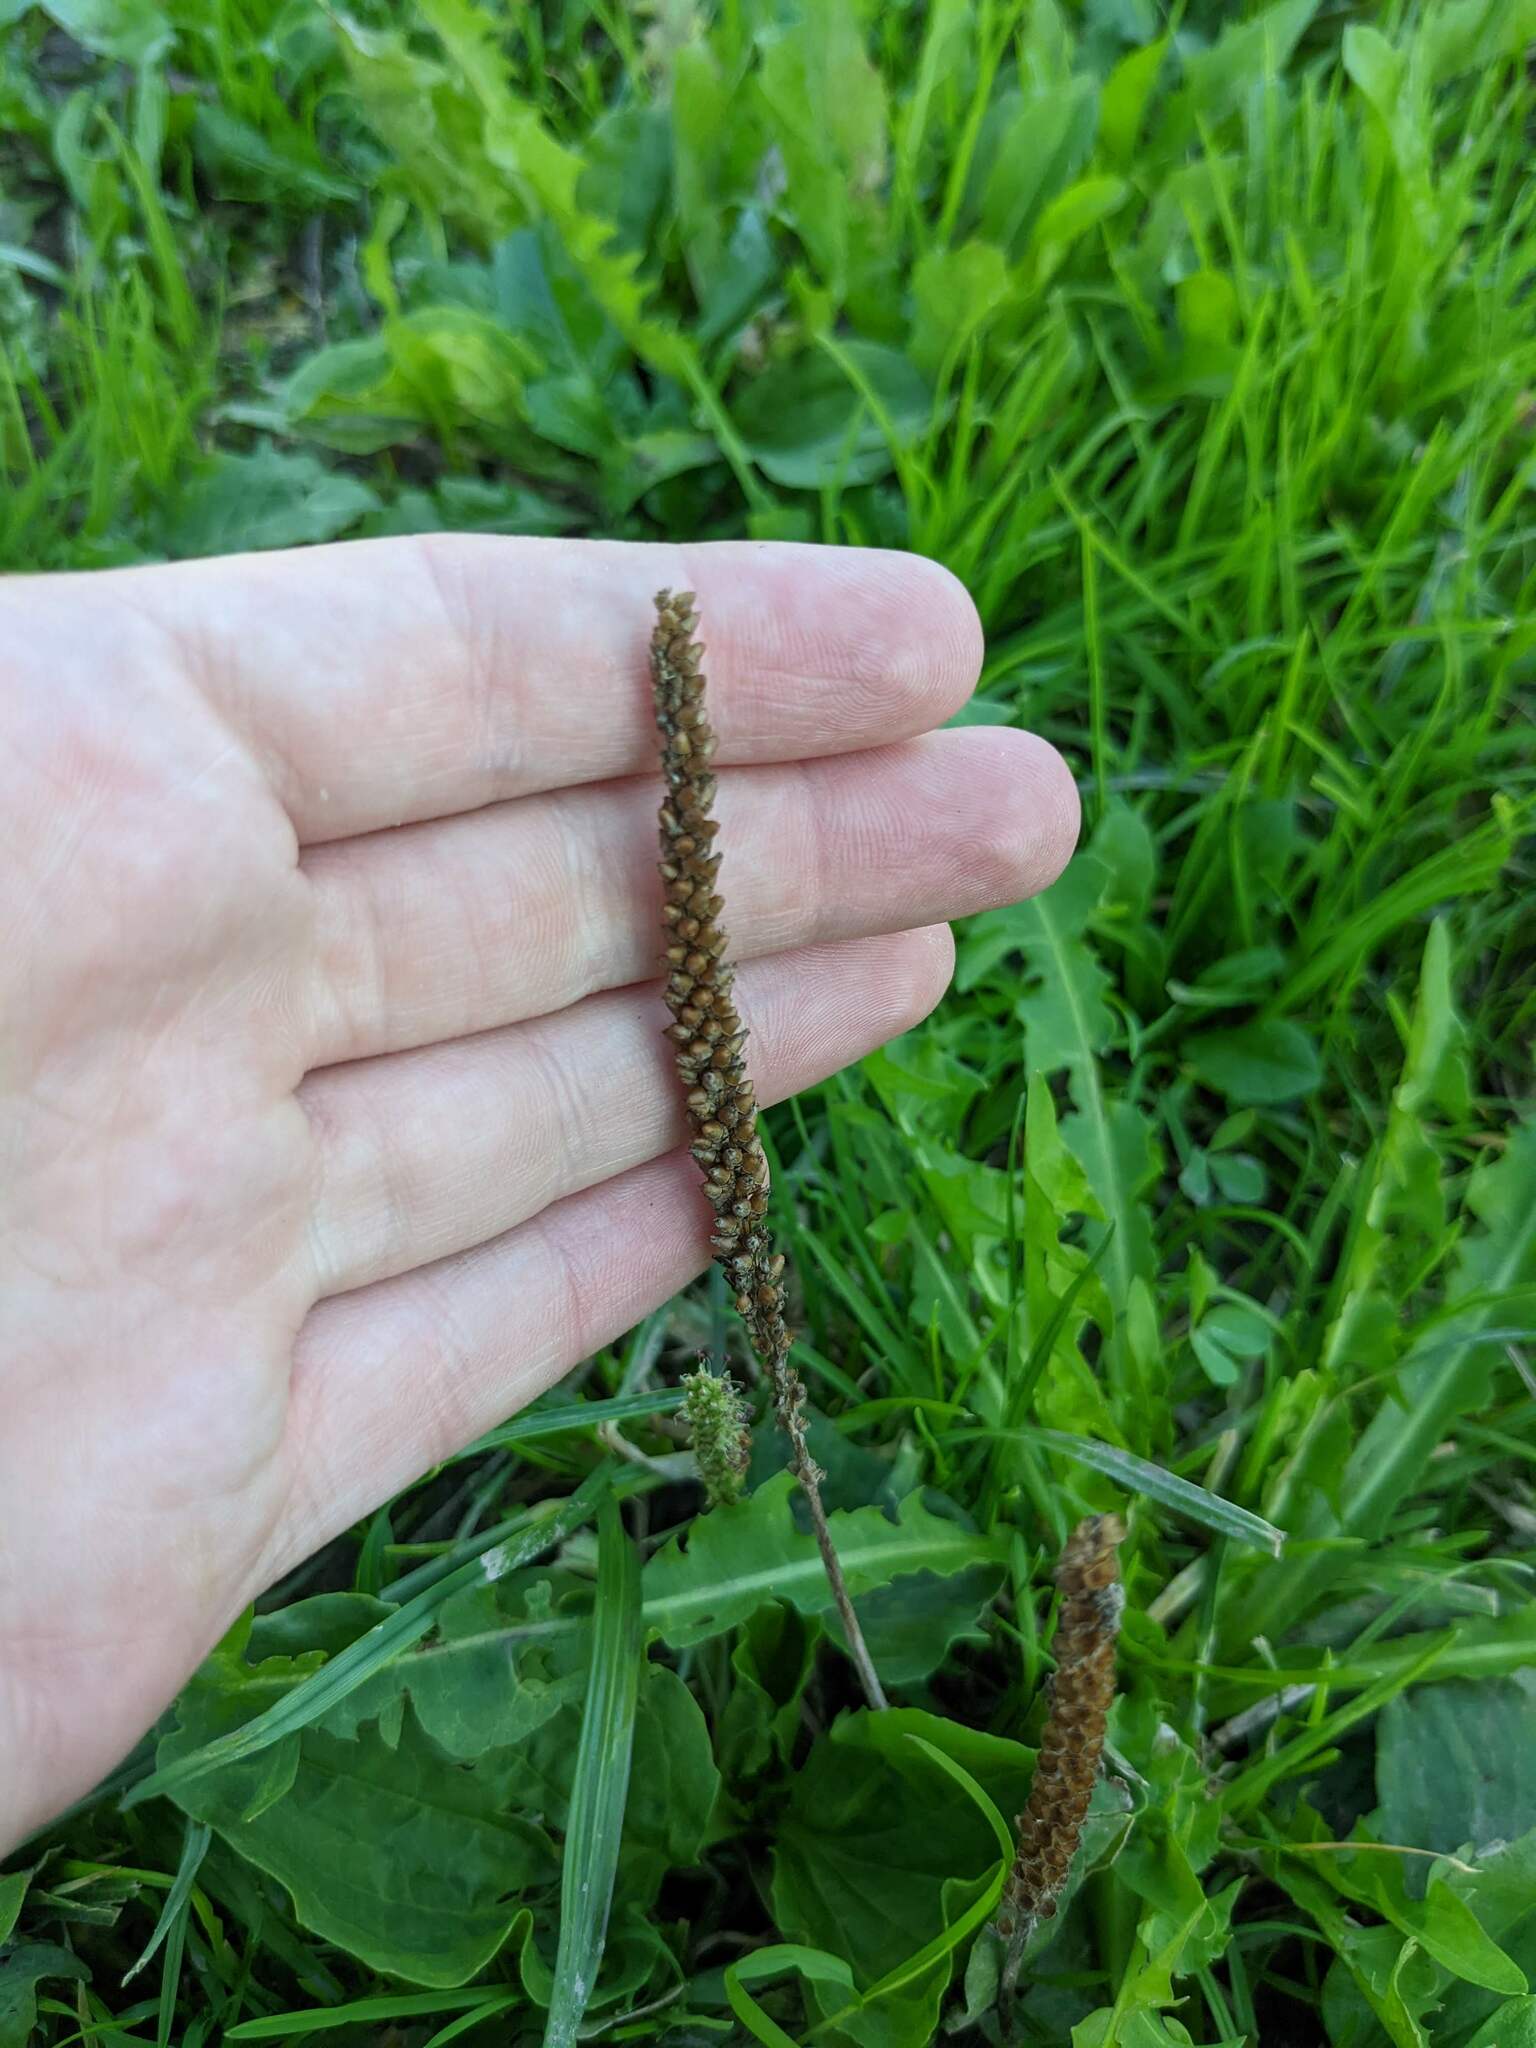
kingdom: Plantae
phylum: Tracheophyta
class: Magnoliopsida
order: Lamiales
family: Plantaginaceae
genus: Plantago
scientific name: Plantago major
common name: Common plantain
